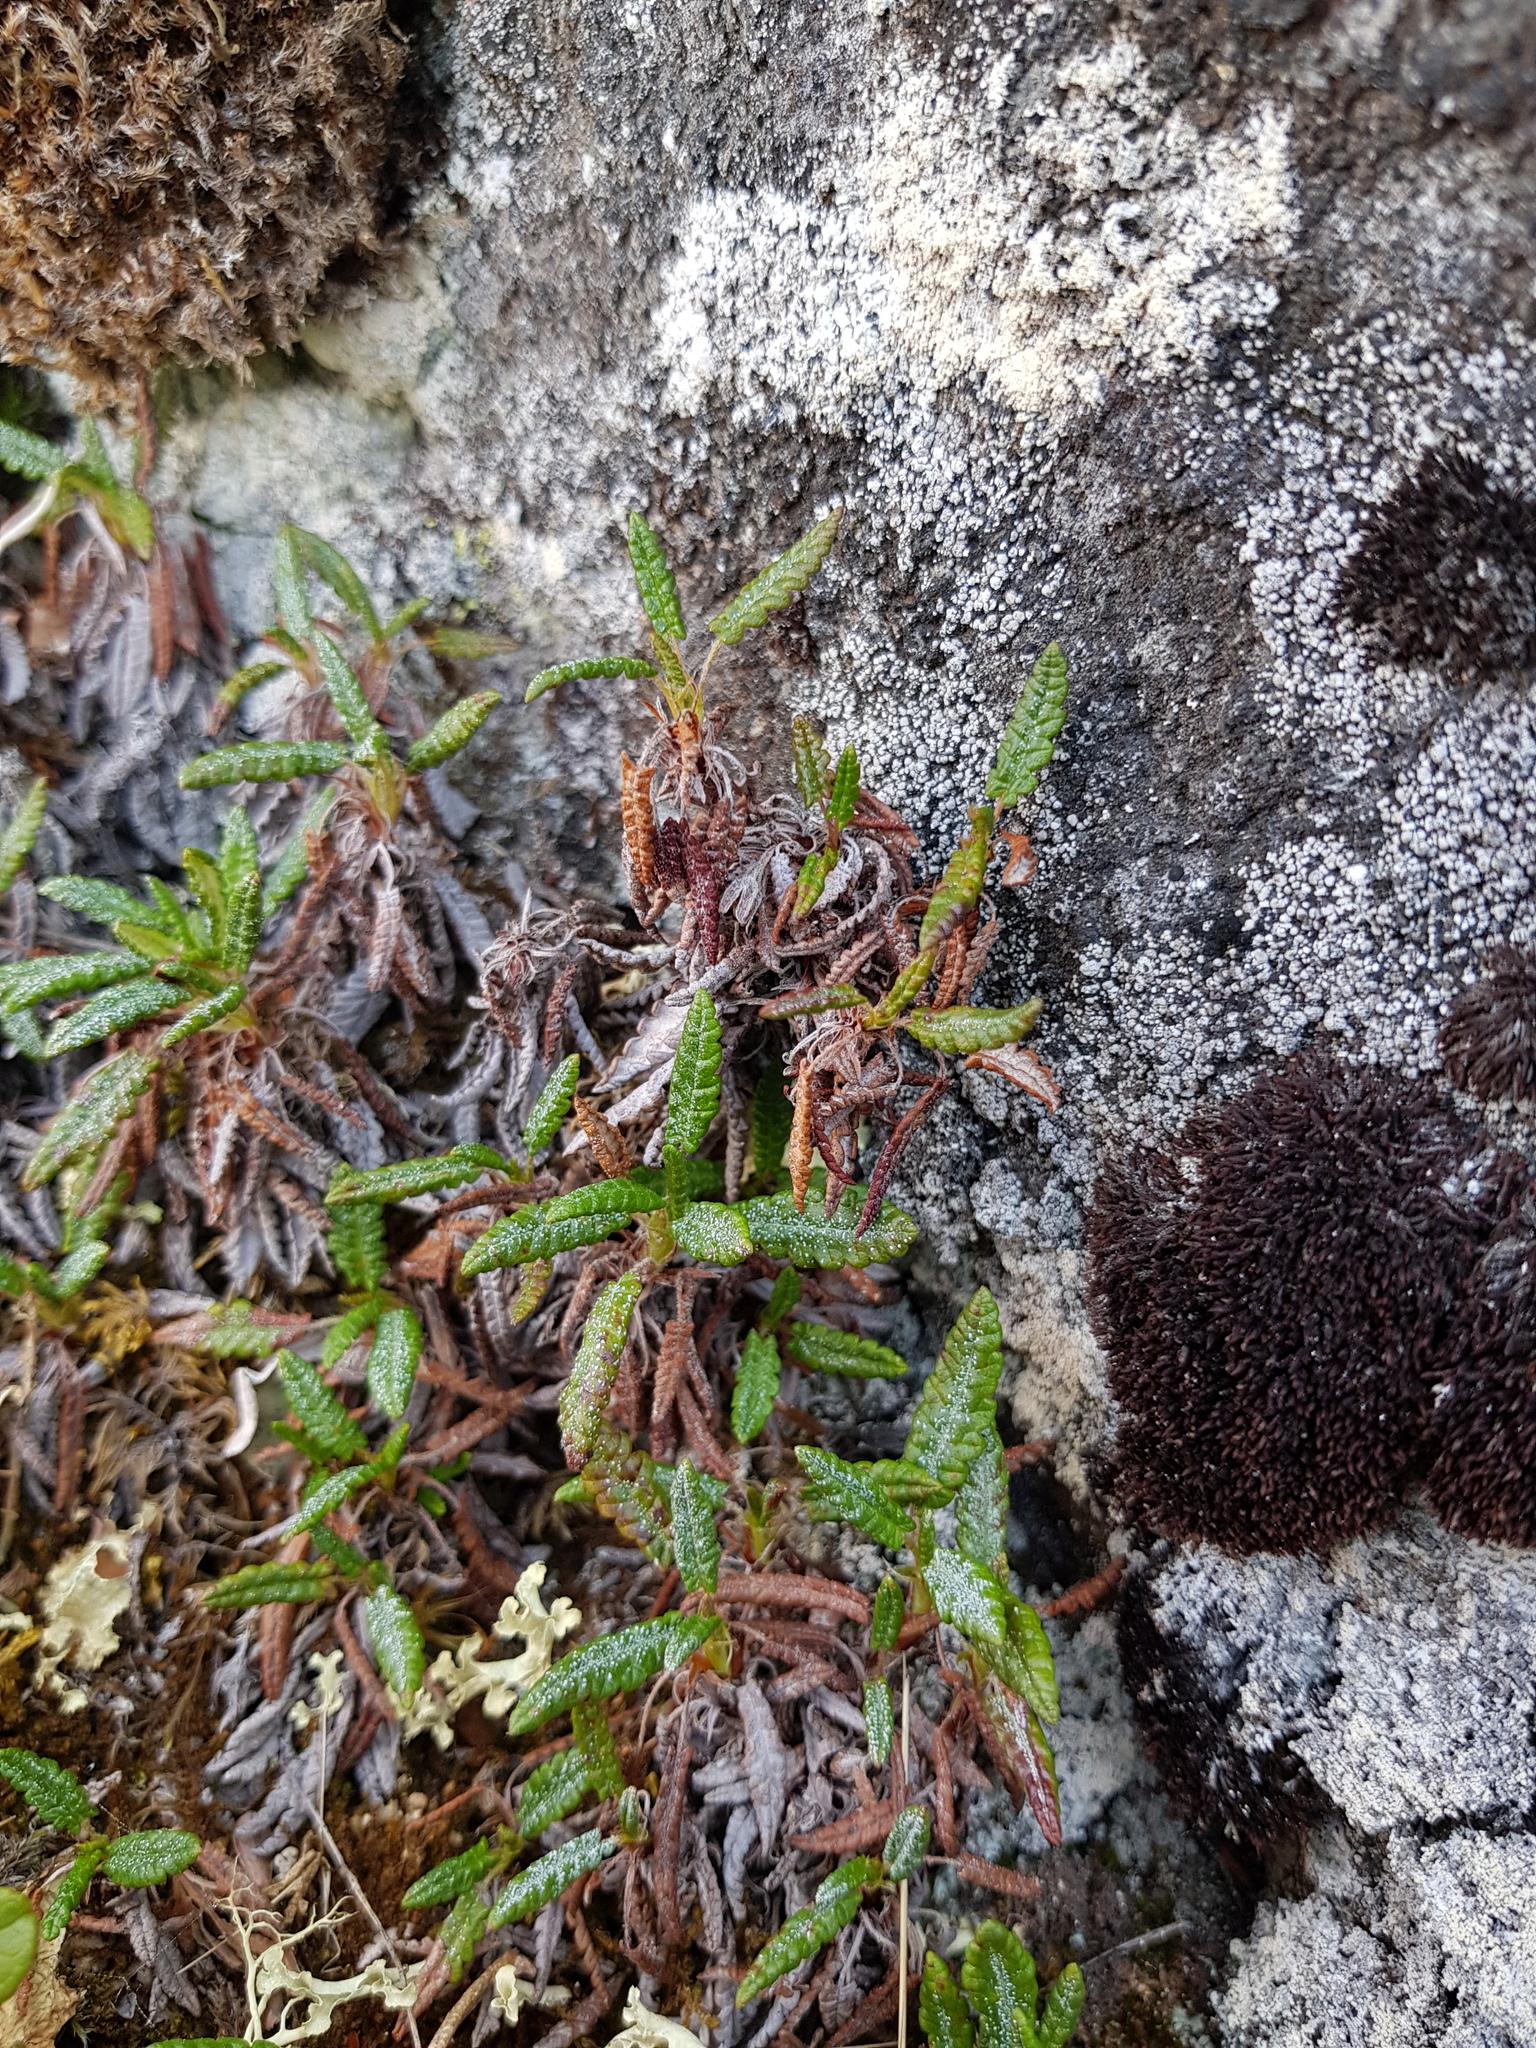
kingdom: Plantae
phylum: Tracheophyta
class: Magnoliopsida
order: Rosales
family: Rosaceae
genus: Dryas
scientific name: Dryas octopetala
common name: Eight-petal mountain-avens
